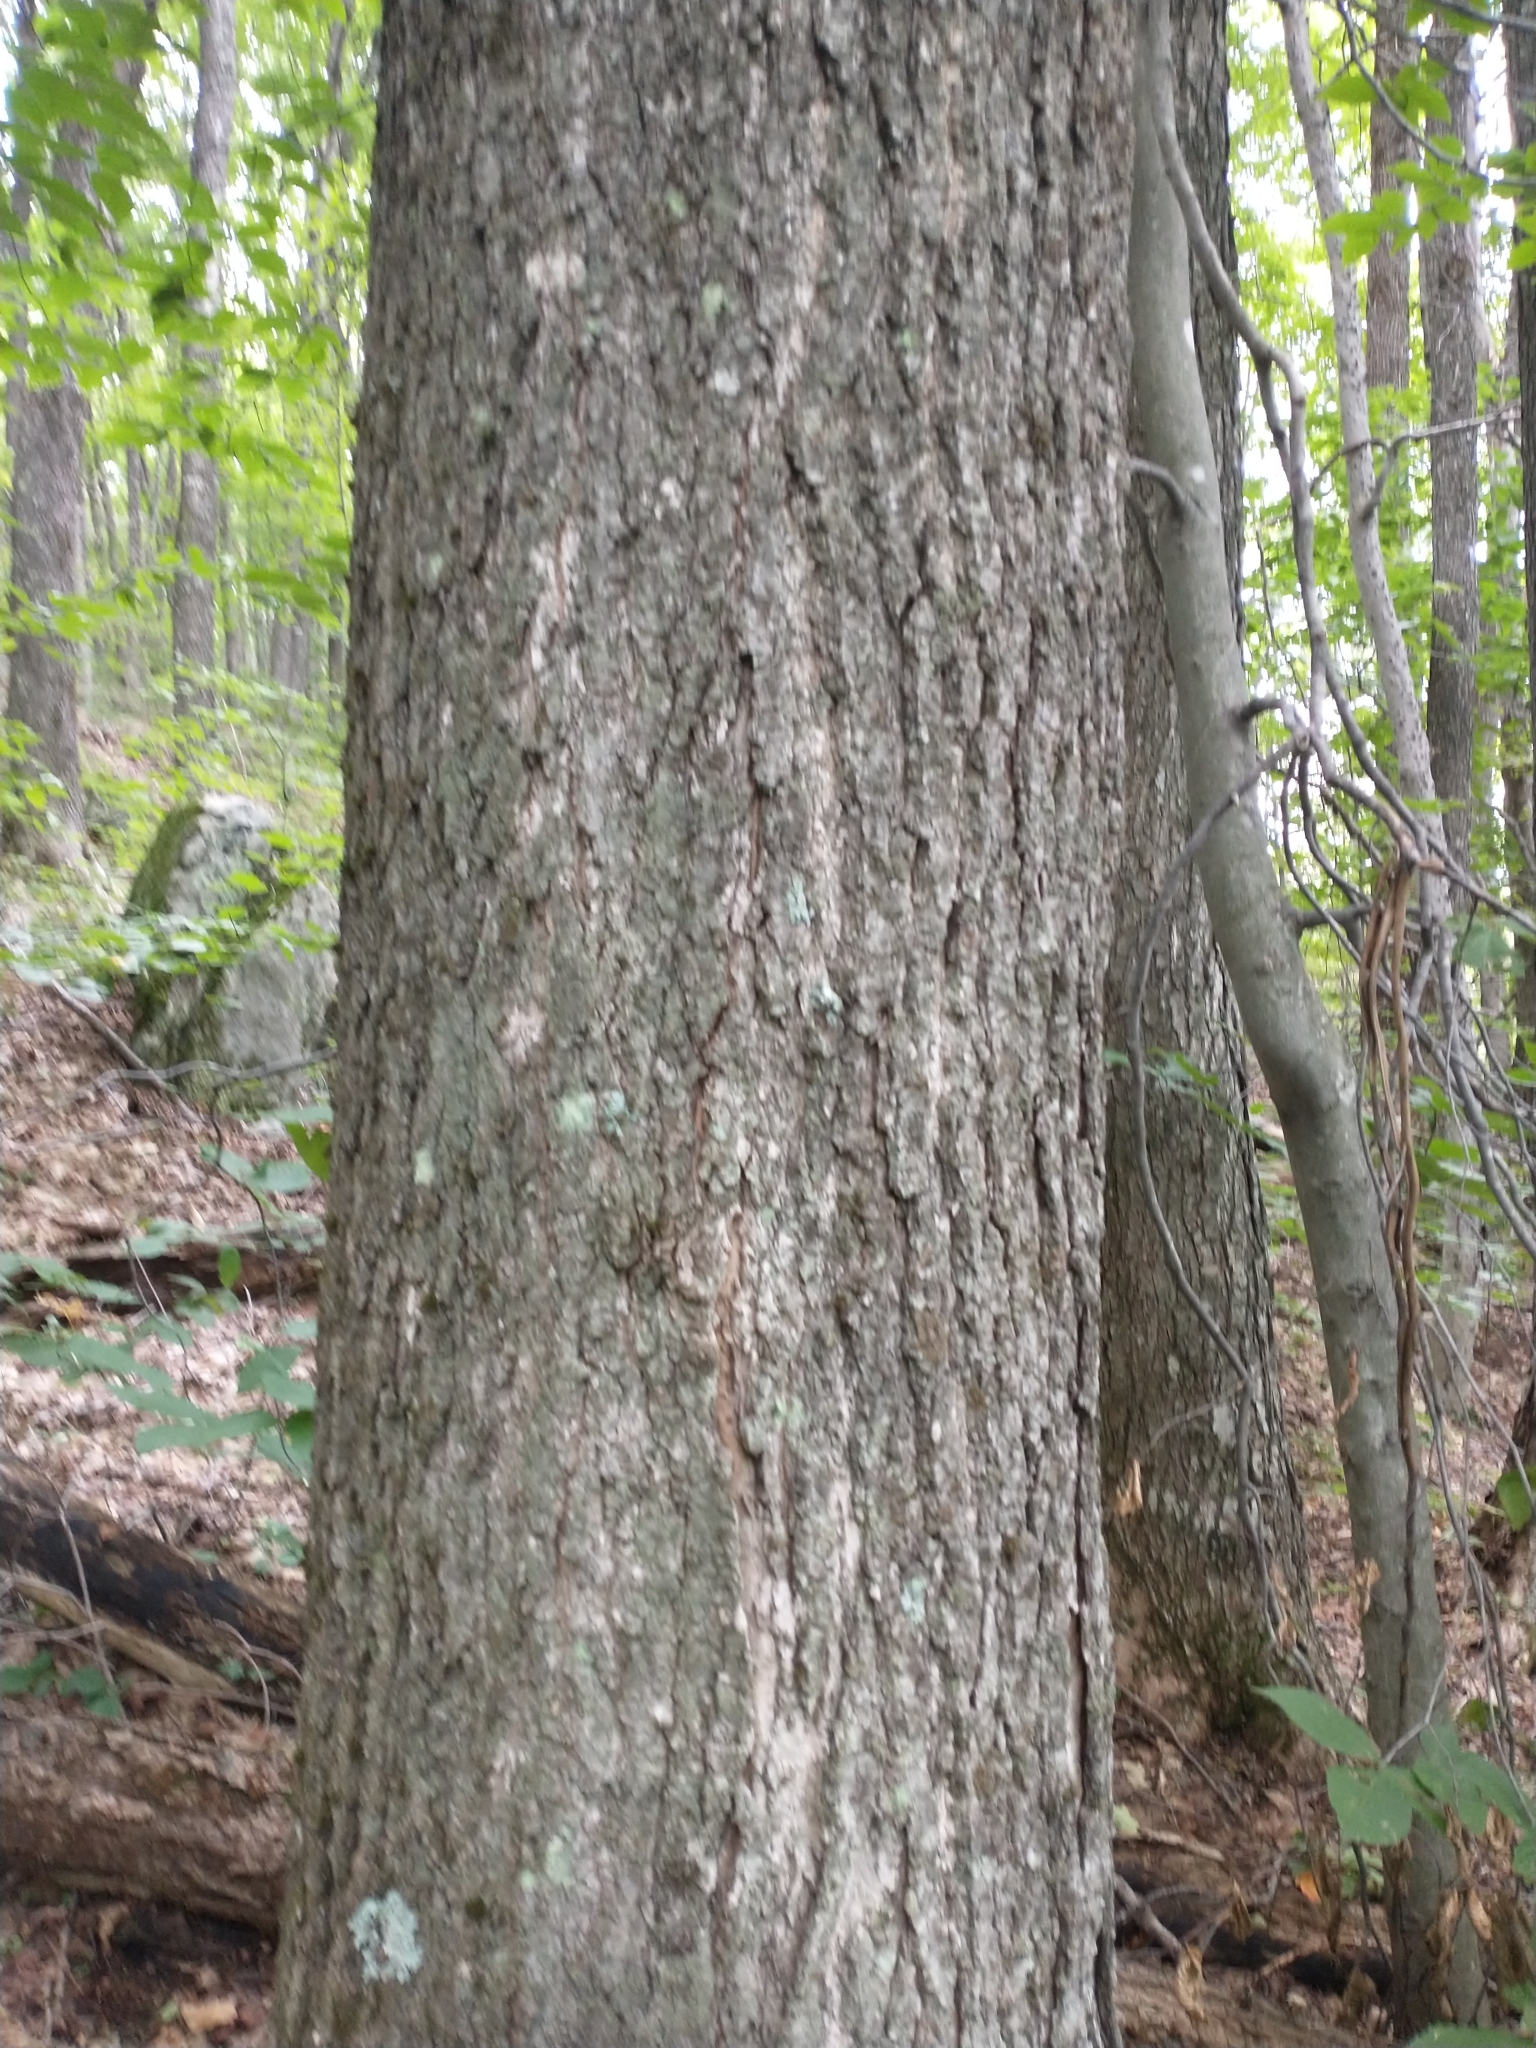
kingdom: Plantae
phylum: Tracheophyta
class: Magnoliopsida
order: Sapindales
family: Sapindaceae
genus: Acer
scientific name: Acer saccharum
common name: Sugar maple
